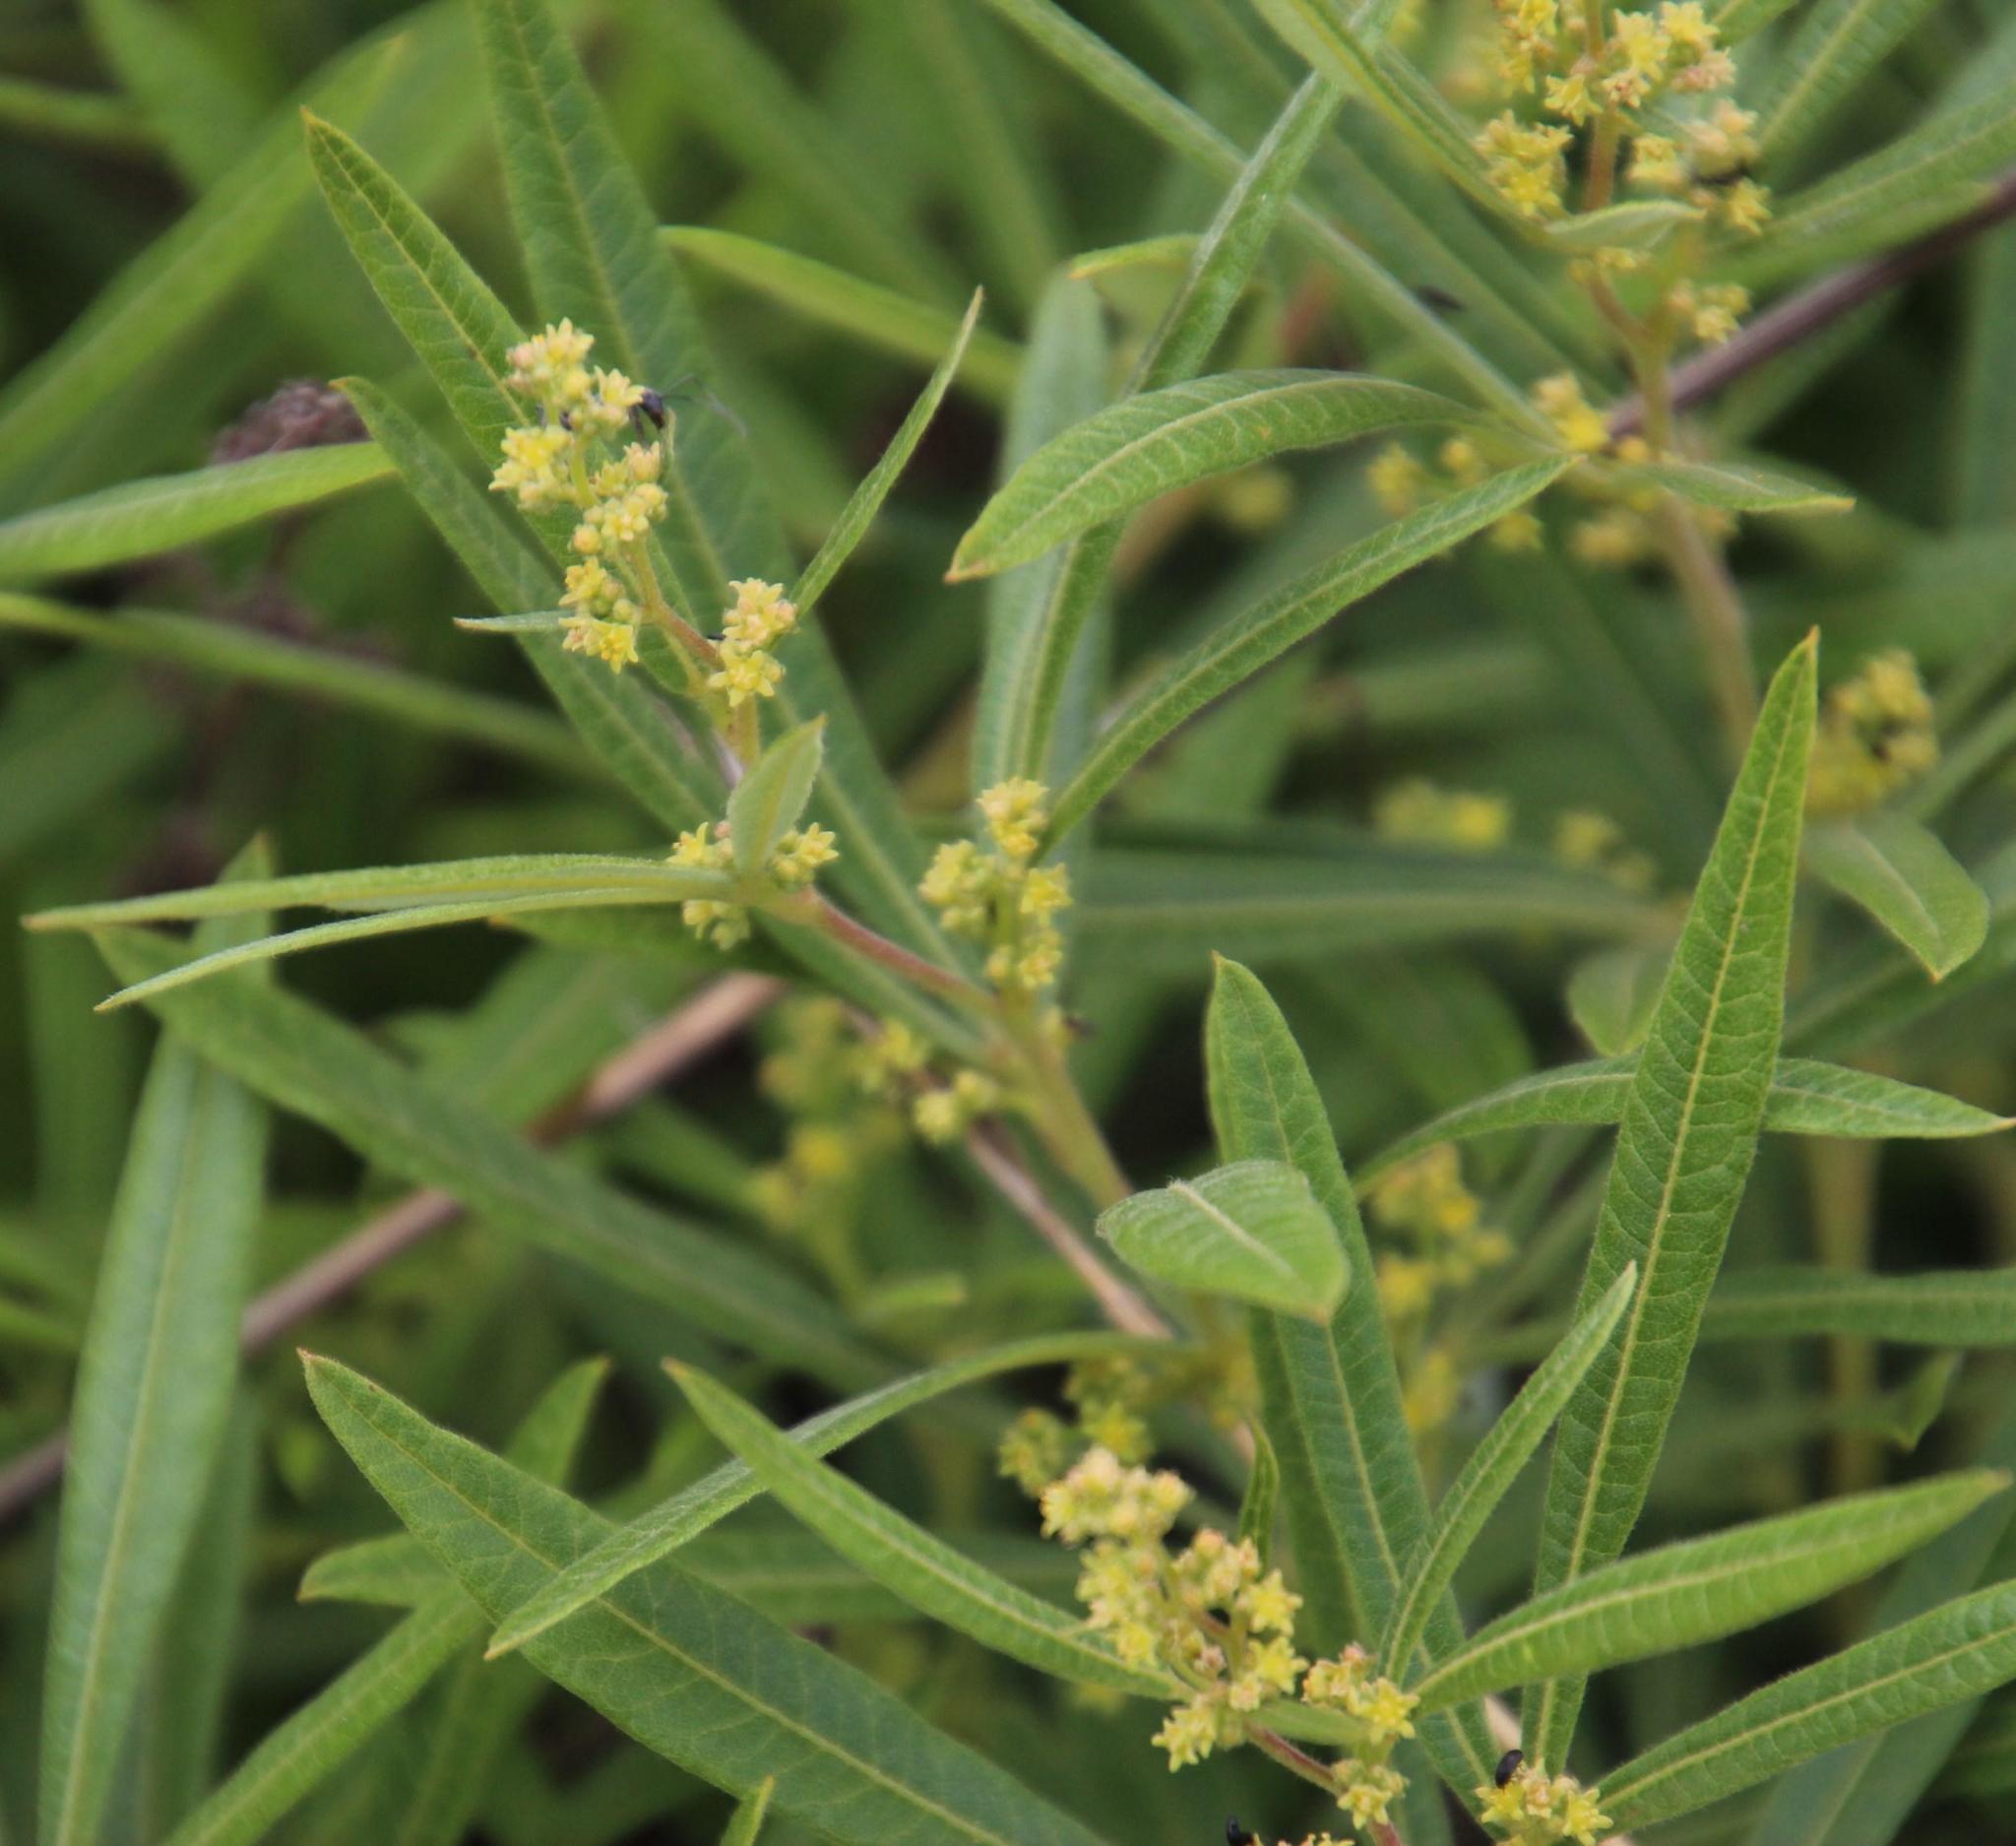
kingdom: Plantae
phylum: Tracheophyta
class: Magnoliopsida
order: Sapindales
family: Anacardiaceae
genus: Searsia
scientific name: Searsia discolor
